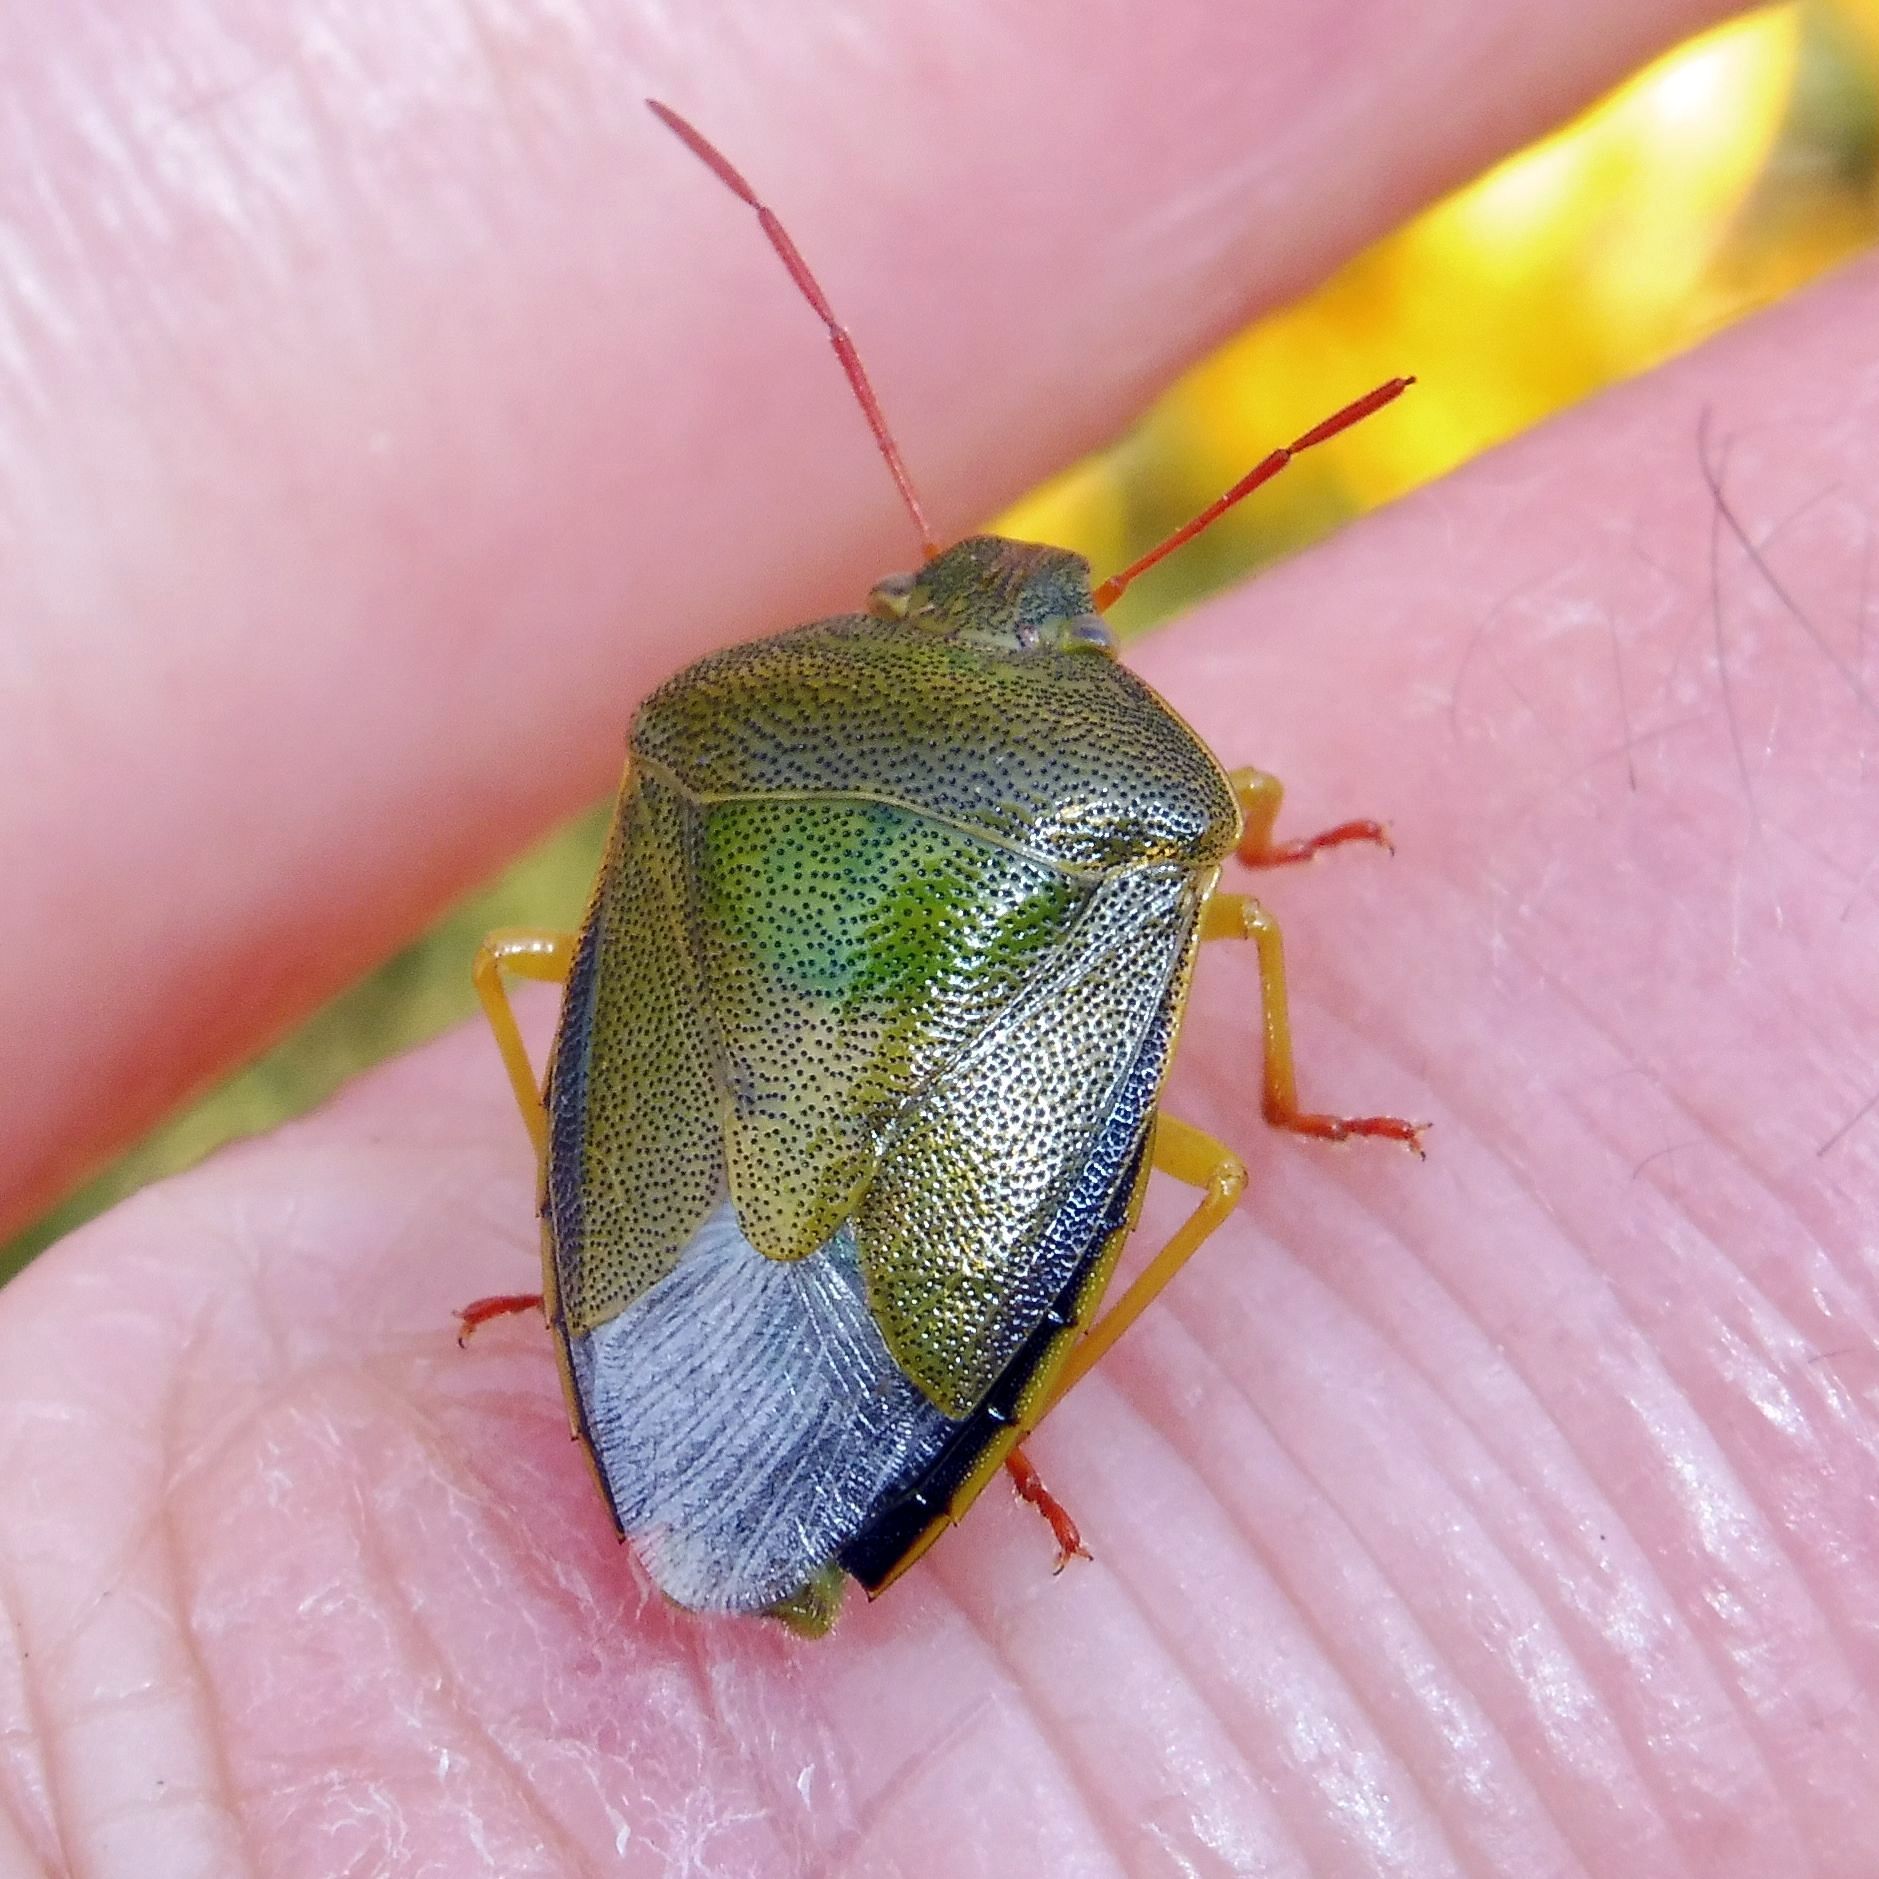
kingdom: Animalia
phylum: Arthropoda
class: Insecta
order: Hemiptera
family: Pentatomidae
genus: Piezodorus
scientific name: Piezodorus lituratus
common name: Stink bug
